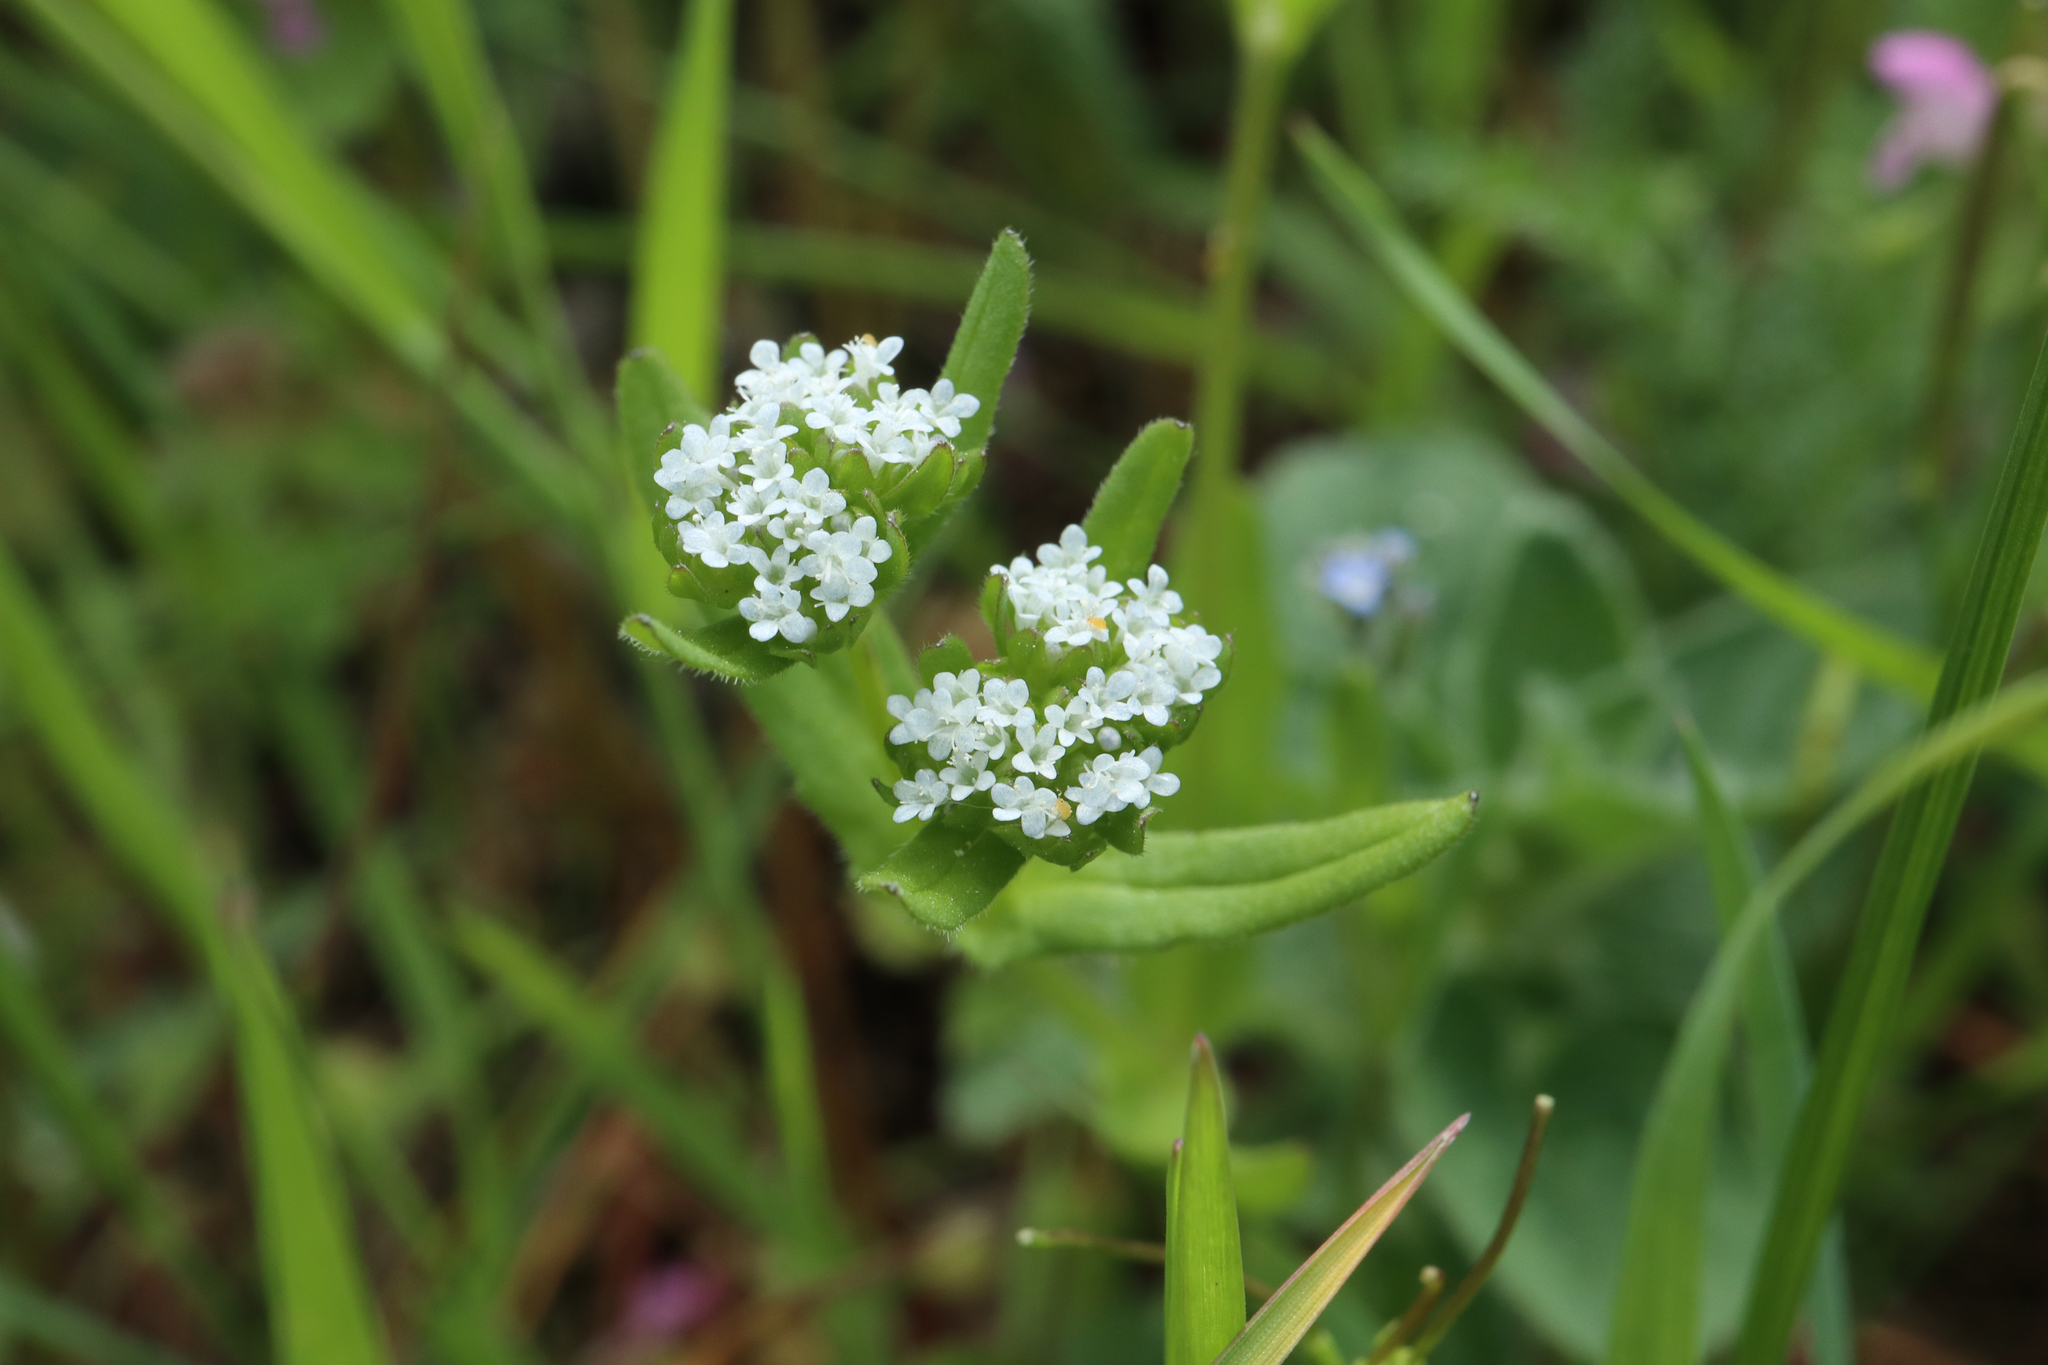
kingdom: Plantae
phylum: Tracheophyta
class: Magnoliopsida
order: Dipsacales
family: Caprifoliaceae
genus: Valerianella
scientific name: Valerianella locusta
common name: Common cornsalad
